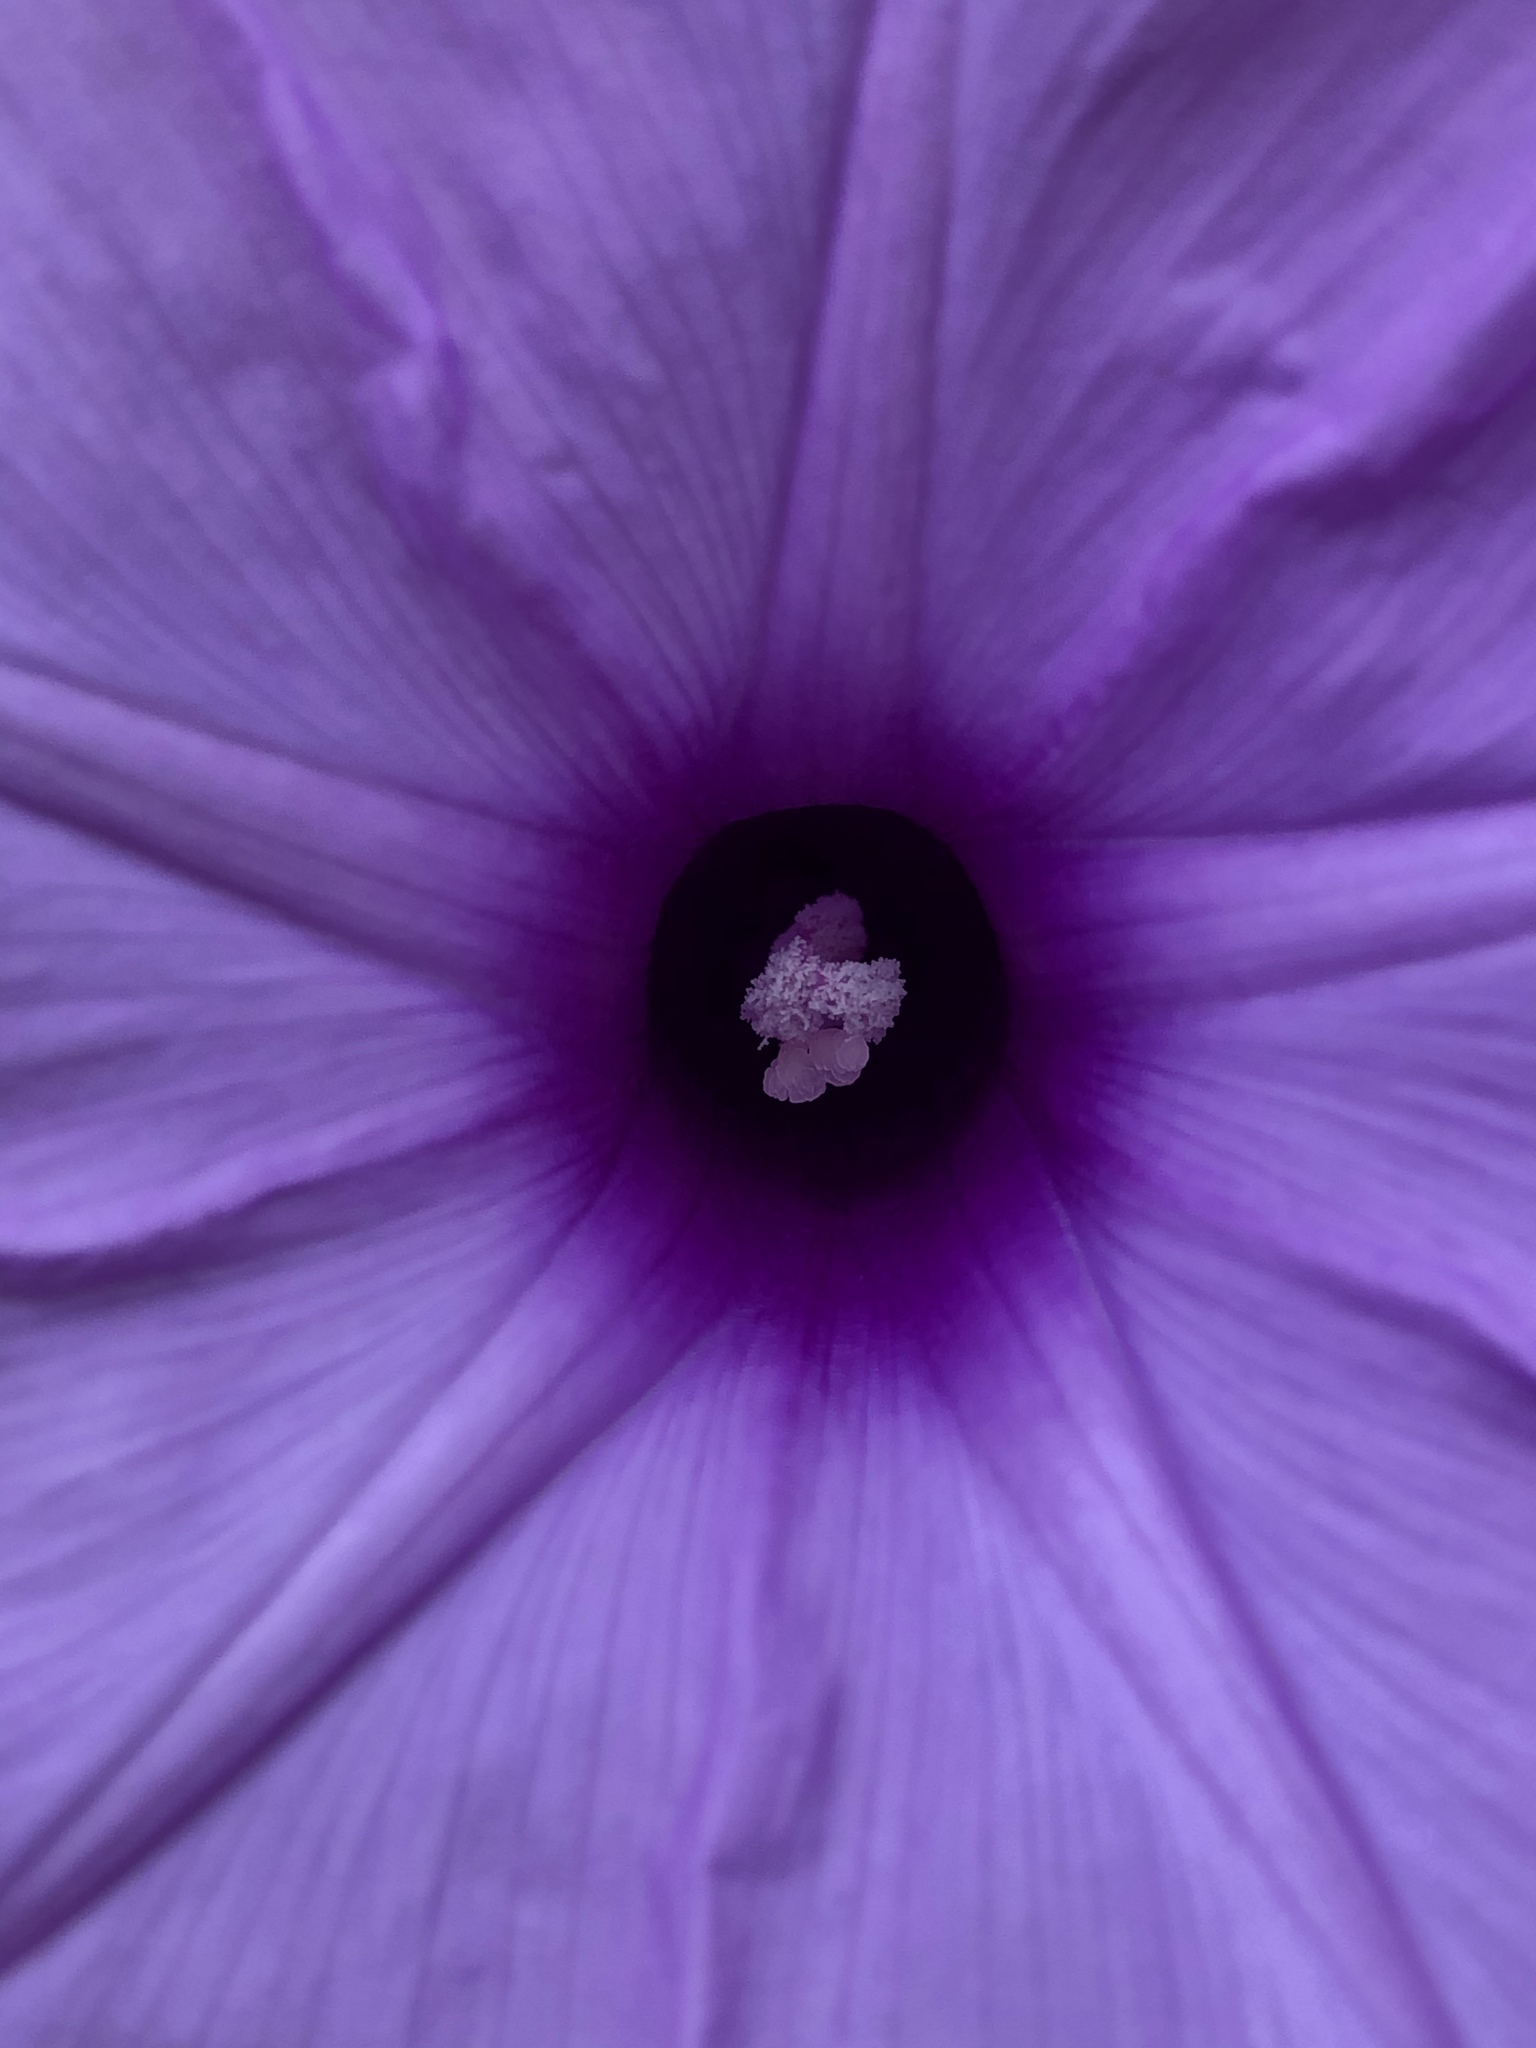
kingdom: Plantae
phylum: Tracheophyta
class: Magnoliopsida
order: Solanales
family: Convolvulaceae
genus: Ipomoea
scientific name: Ipomoea cairica
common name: Mile a minute vine
